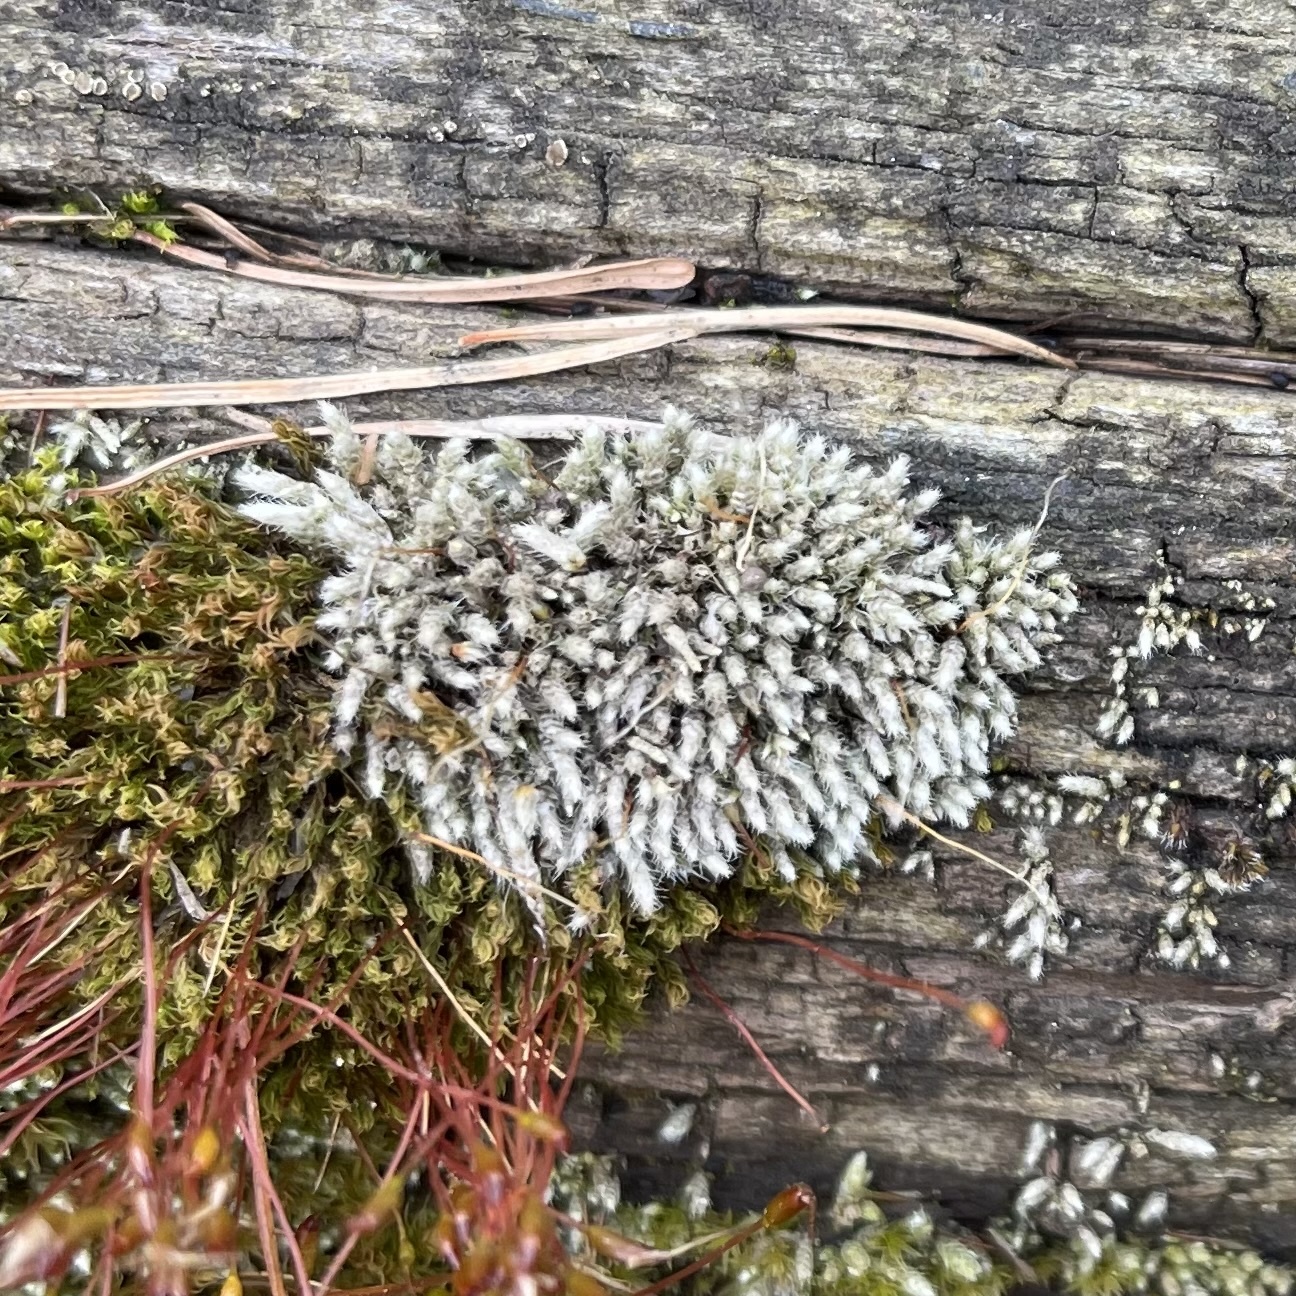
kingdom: Plantae
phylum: Bryophyta
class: Bryopsida
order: Bryales
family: Bryaceae
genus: Bryum
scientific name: Bryum argenteum
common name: Silver-moss
